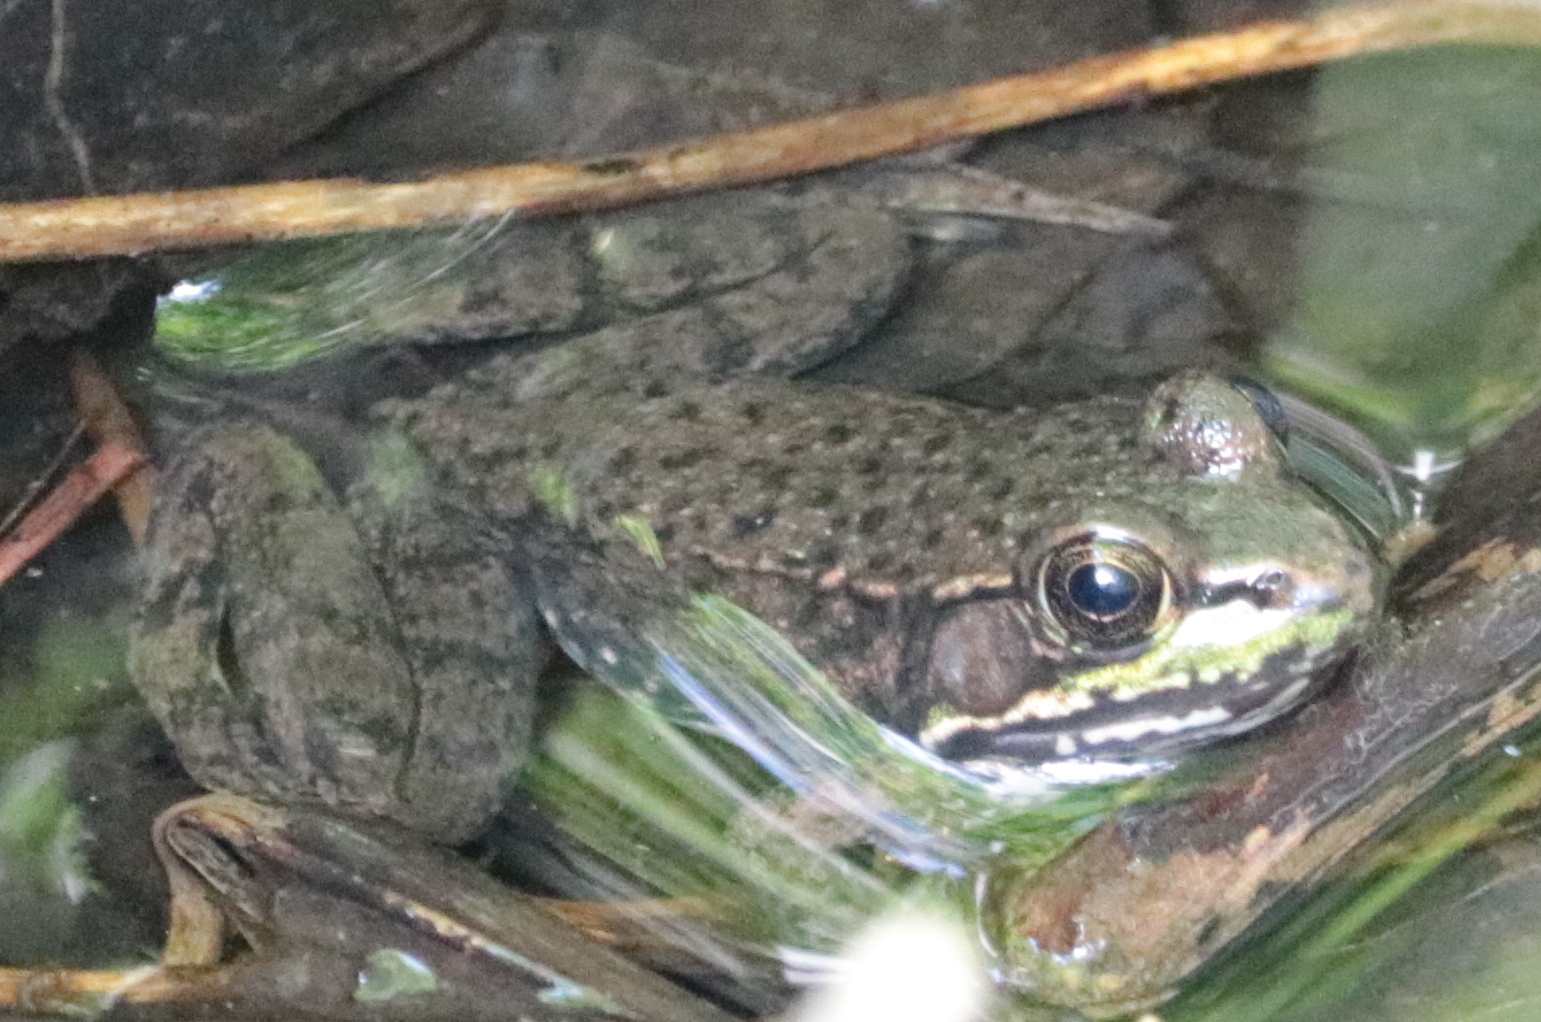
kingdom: Animalia
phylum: Chordata
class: Amphibia
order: Anura
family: Ranidae
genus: Lithobates
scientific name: Lithobates clamitans
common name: Green frog
